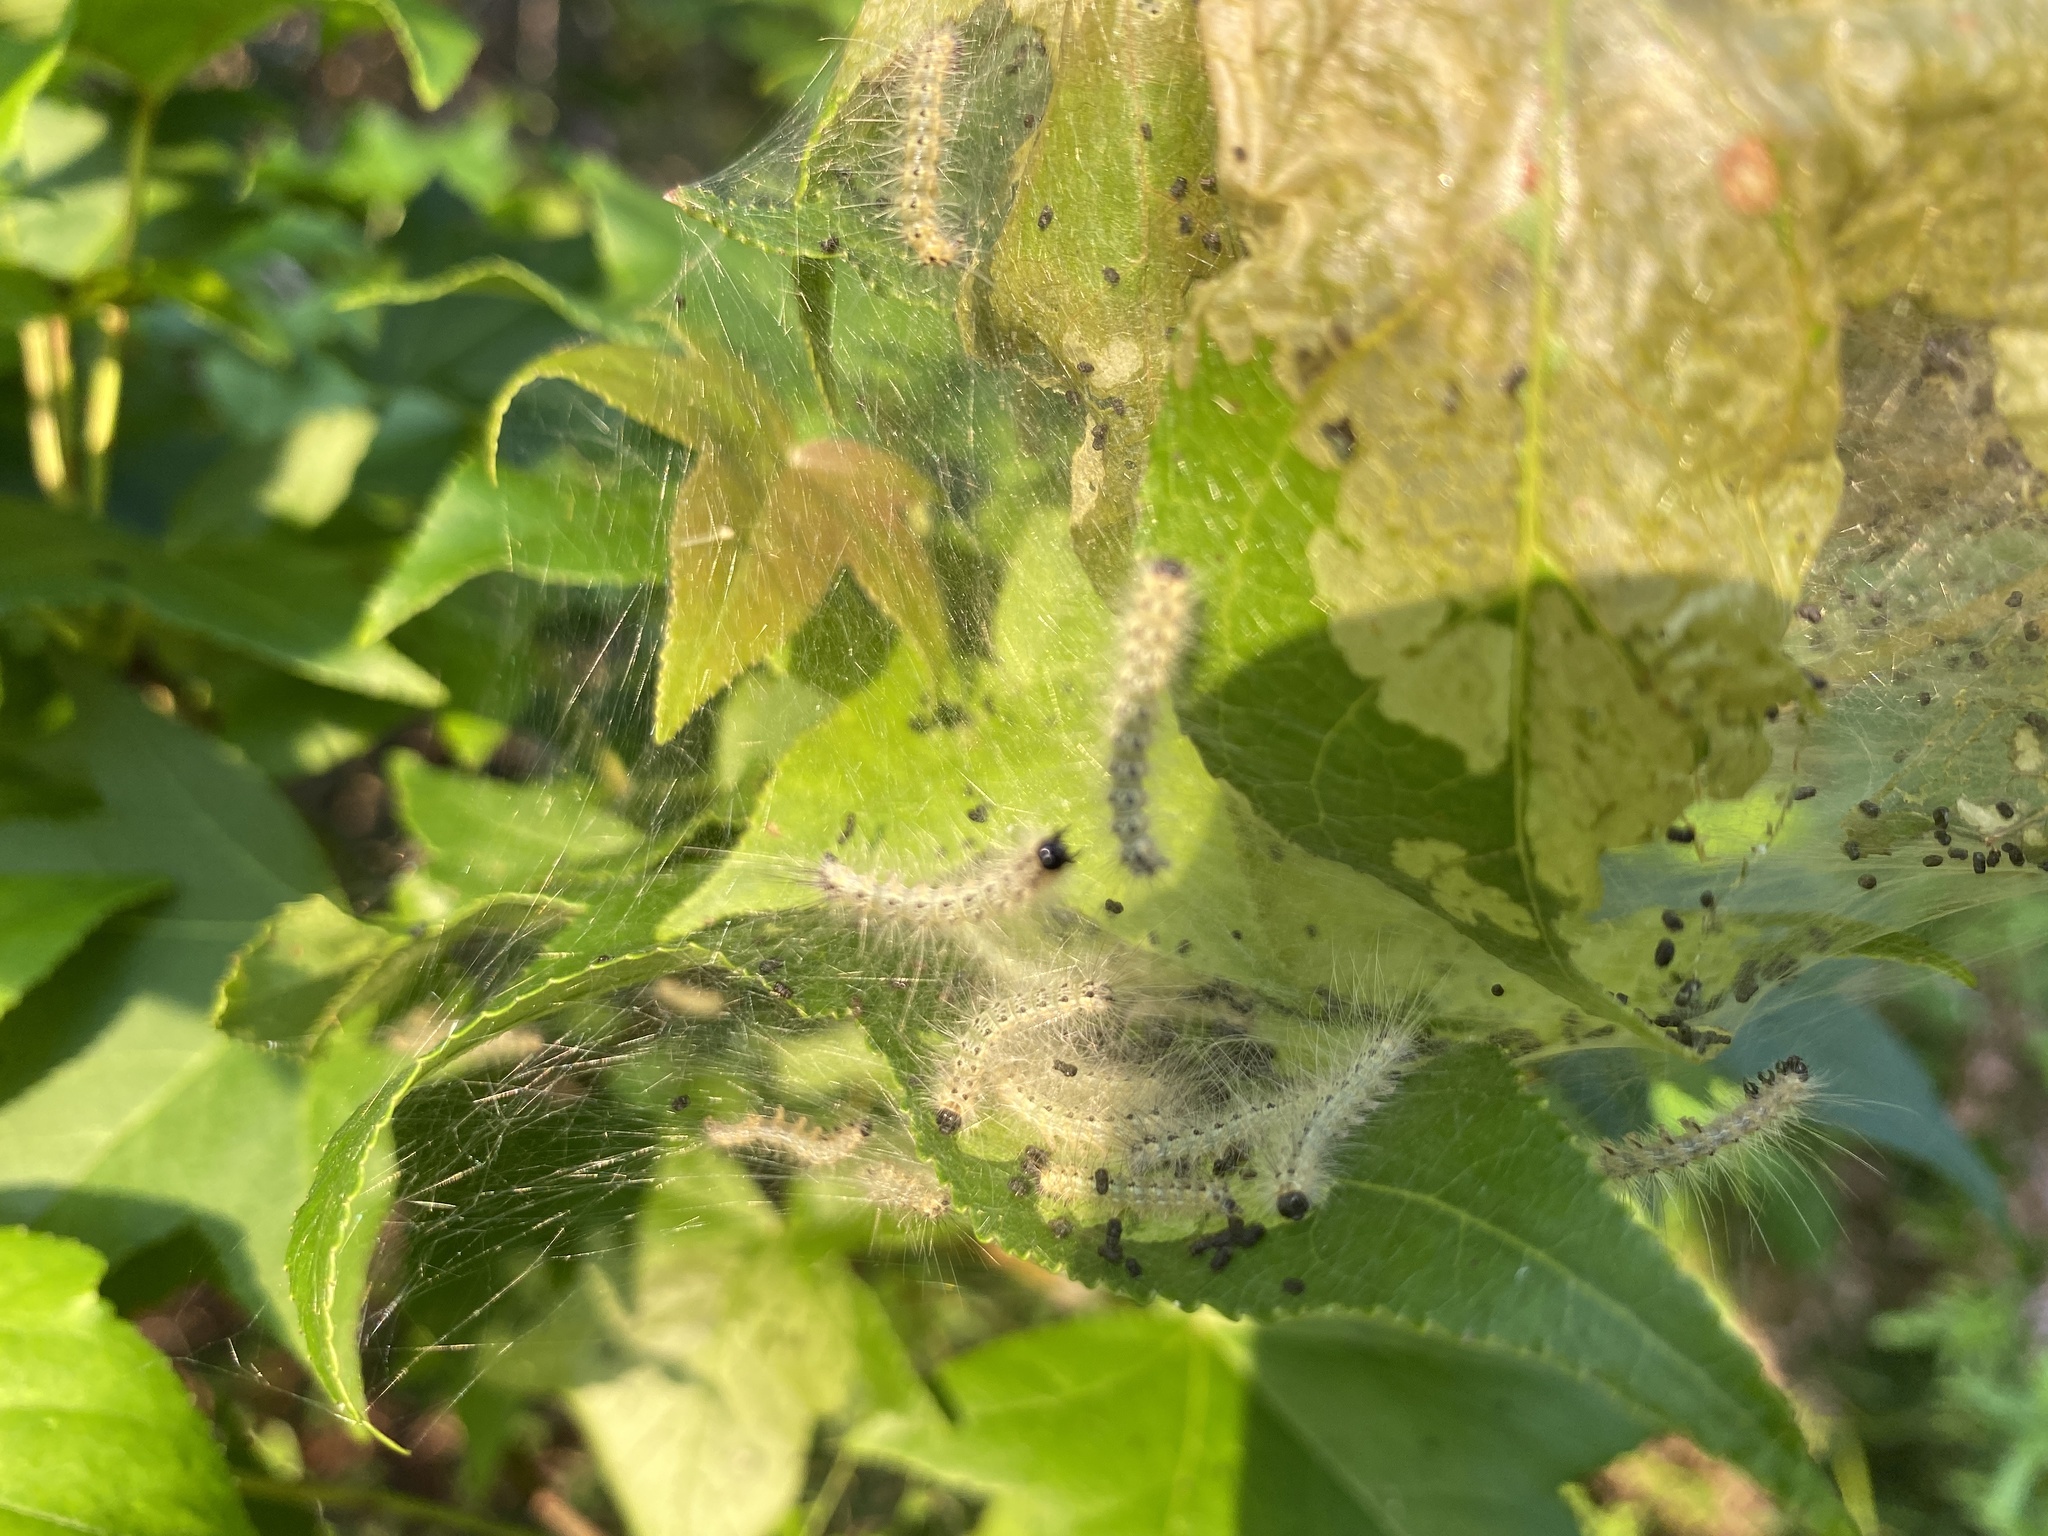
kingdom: Animalia
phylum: Arthropoda
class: Insecta
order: Lepidoptera
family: Erebidae
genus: Hyphantria
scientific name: Hyphantria cunea
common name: American white moth
